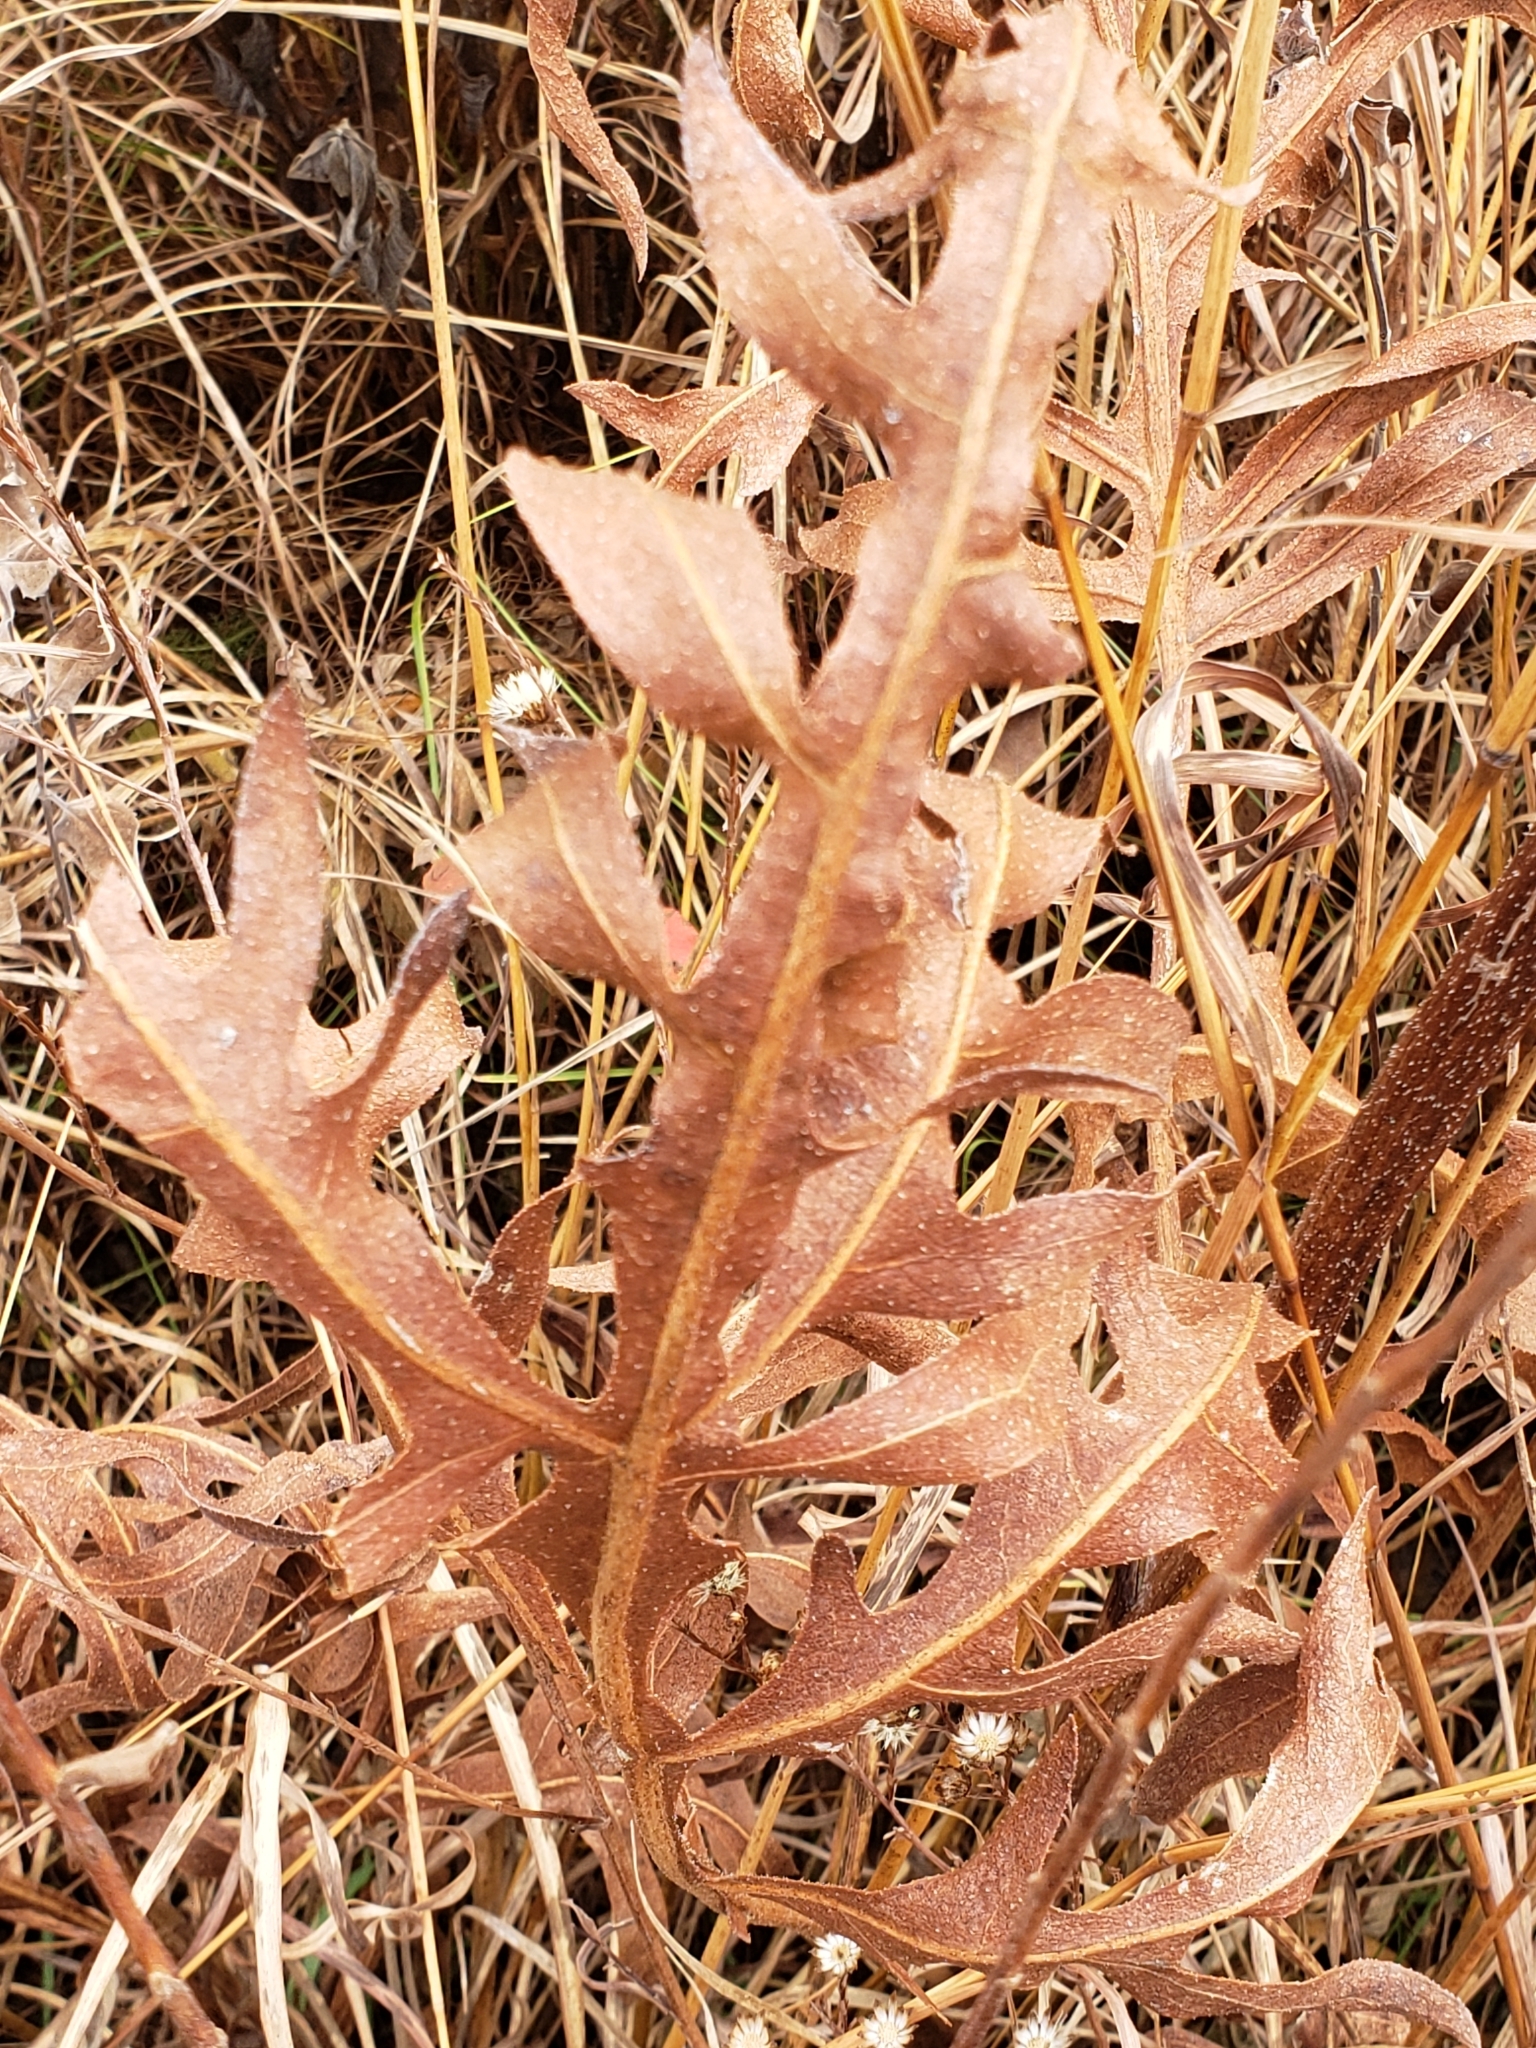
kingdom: Animalia
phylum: Arthropoda
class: Insecta
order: Hymenoptera
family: Cynipidae
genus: Antistrophus
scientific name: Antistrophus
